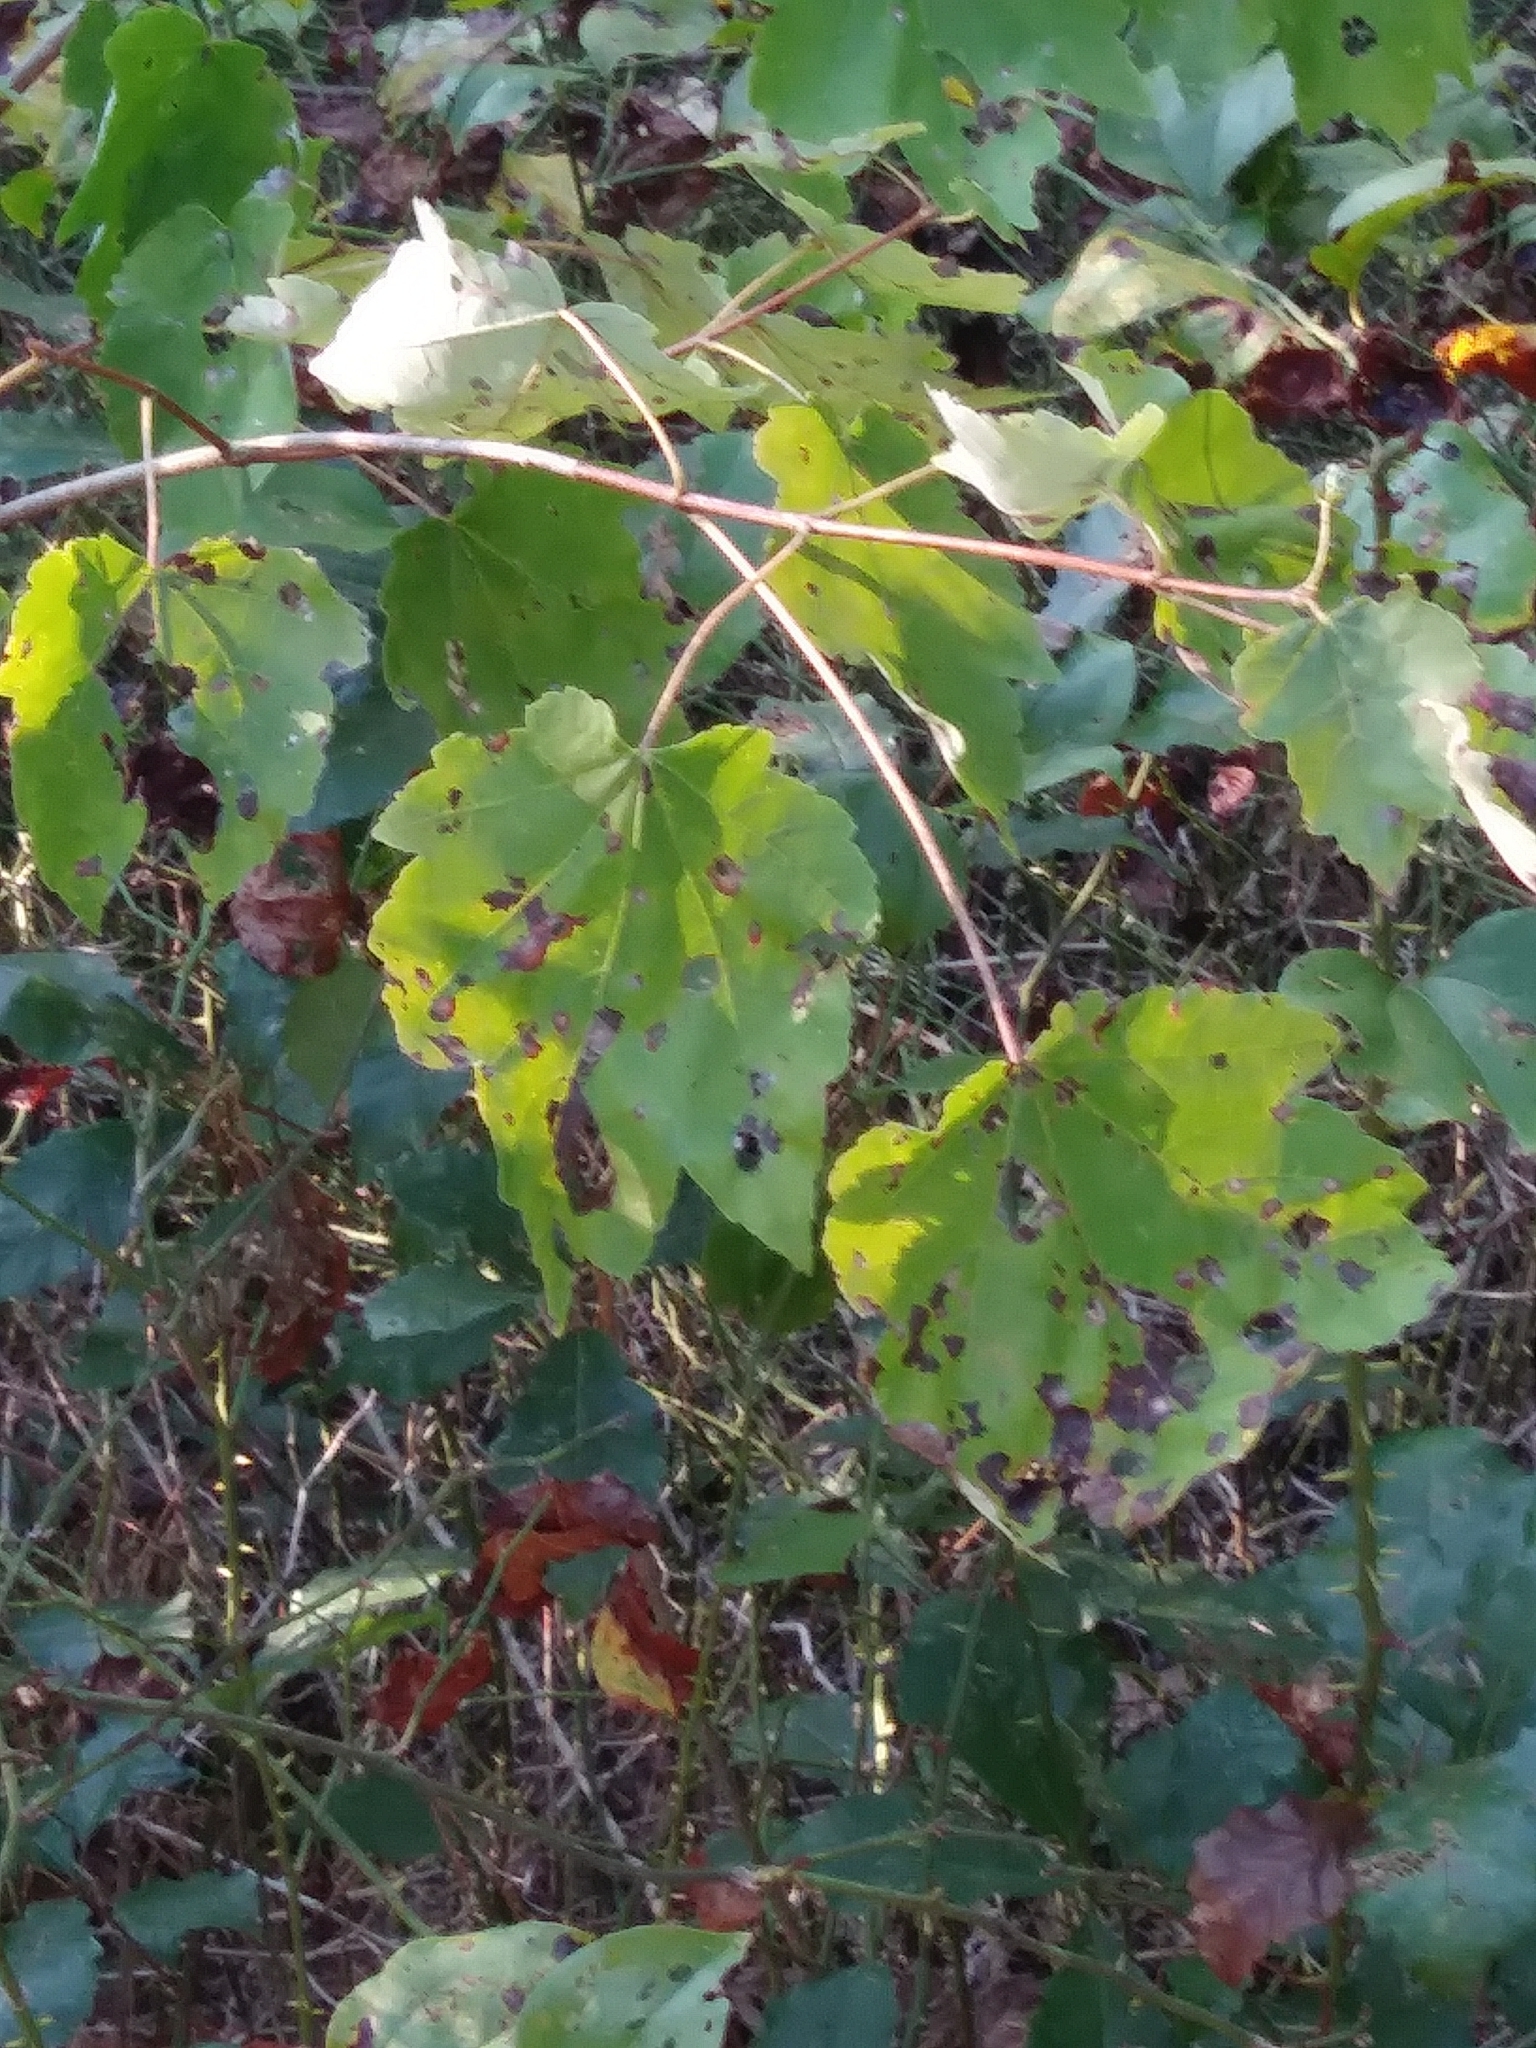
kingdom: Plantae
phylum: Tracheophyta
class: Magnoliopsida
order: Sapindales
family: Sapindaceae
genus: Acer
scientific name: Acer rubrum
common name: Red maple
